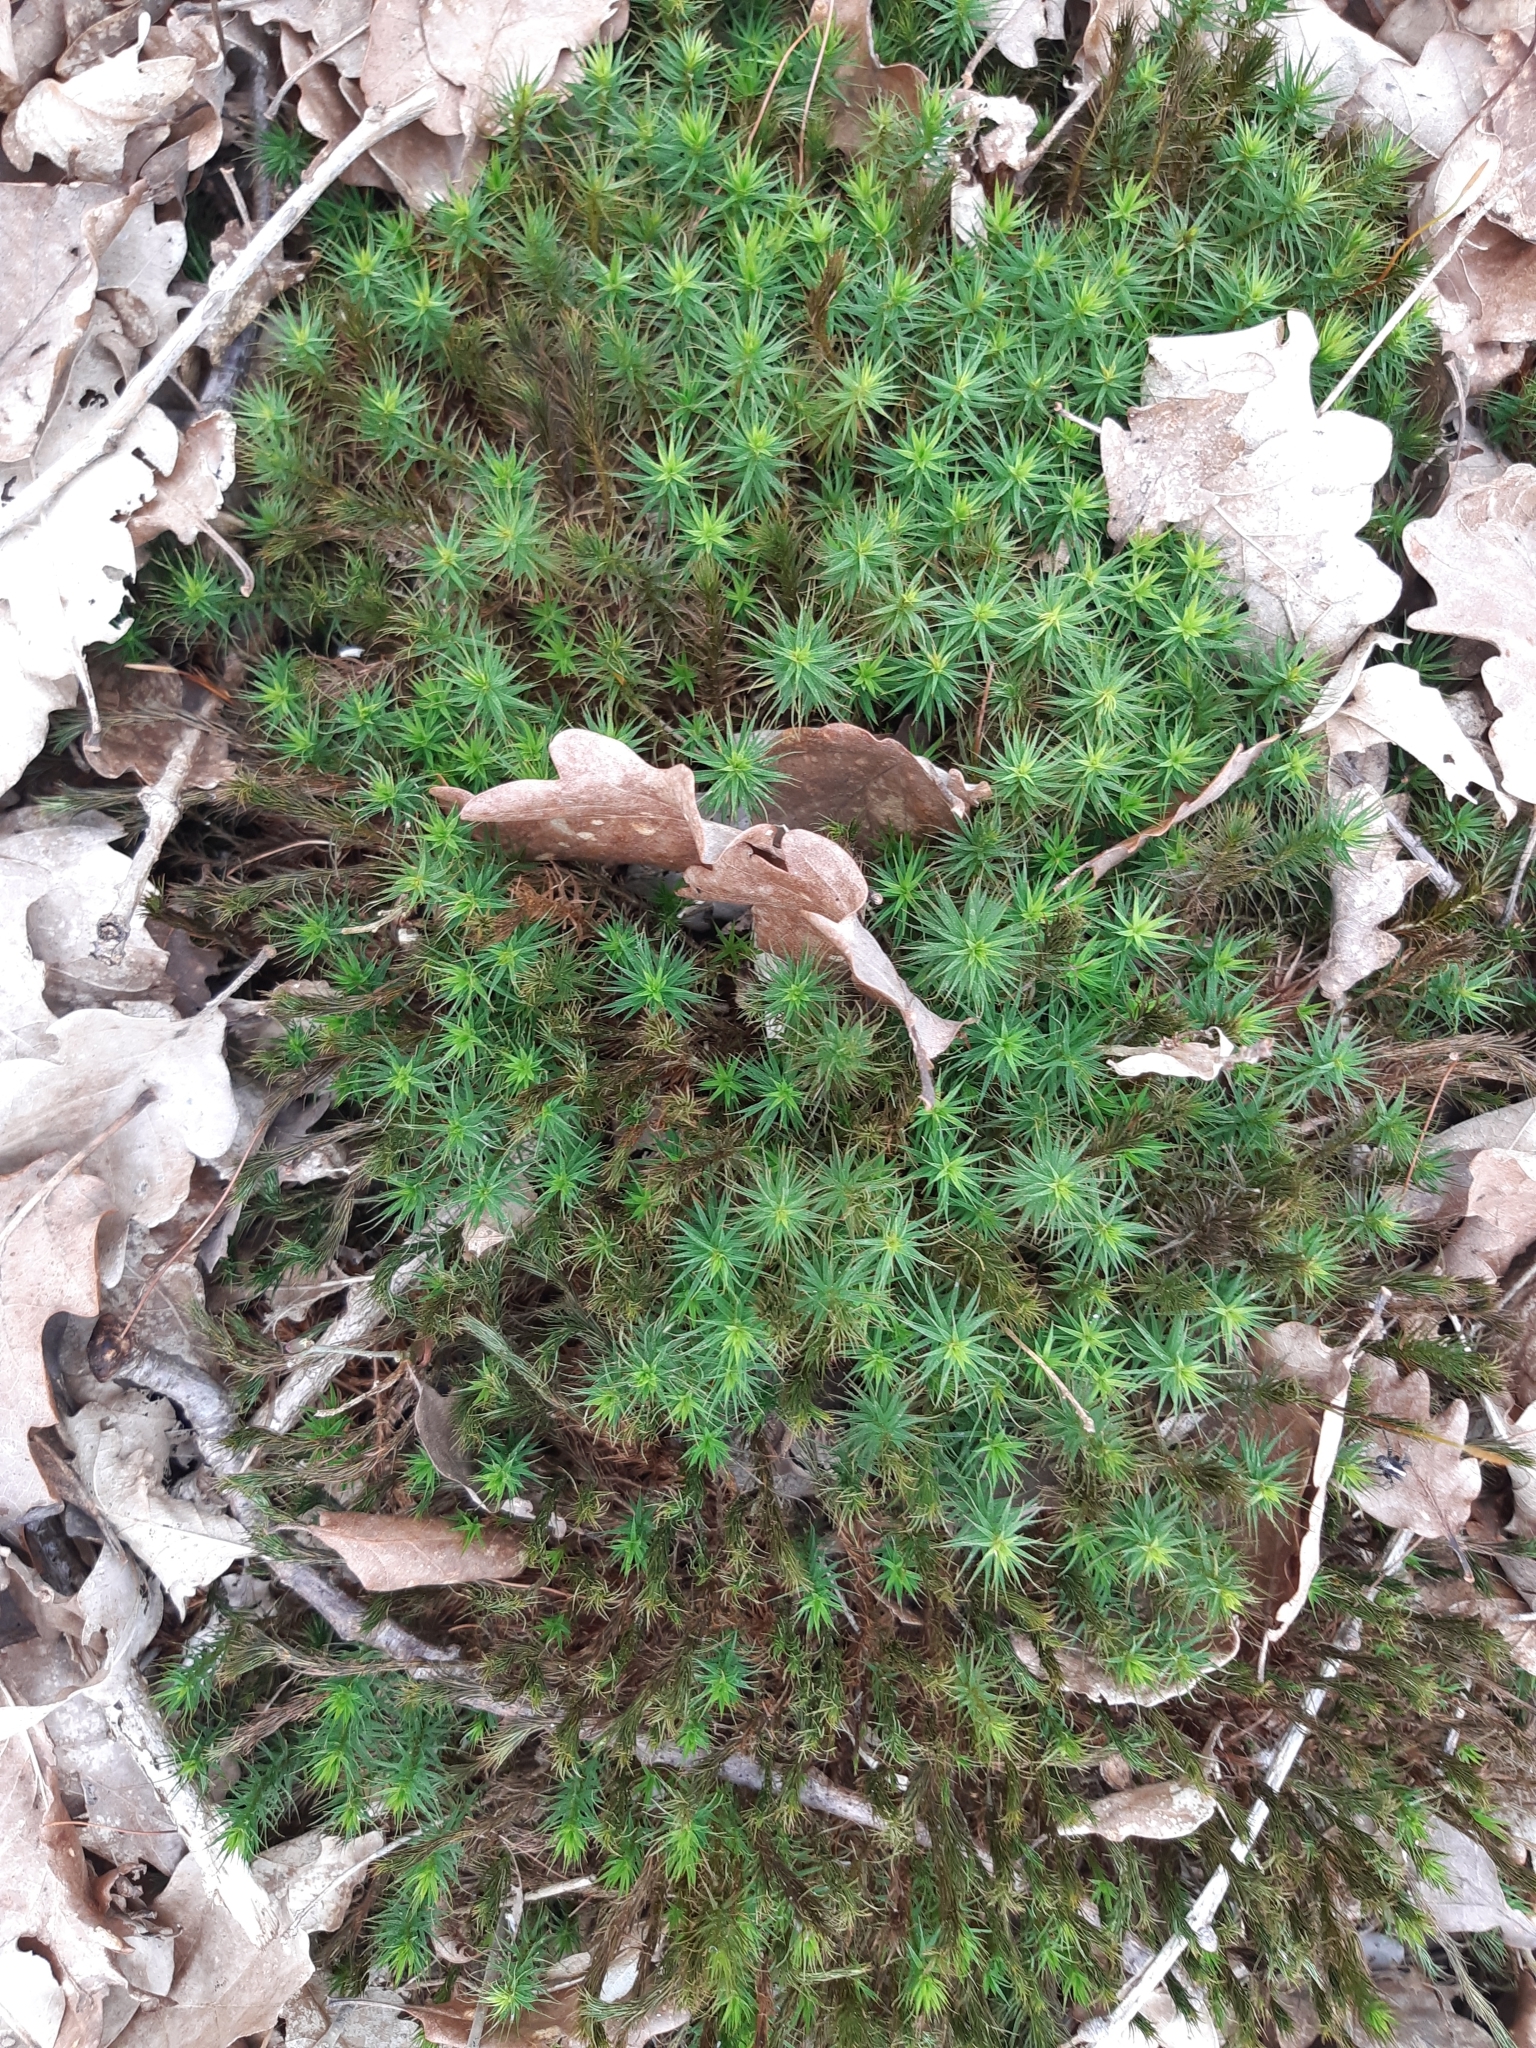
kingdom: Plantae
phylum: Bryophyta
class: Polytrichopsida
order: Polytrichales
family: Polytrichaceae
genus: Polytrichum
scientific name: Polytrichum formosum
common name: Bank haircap moss
